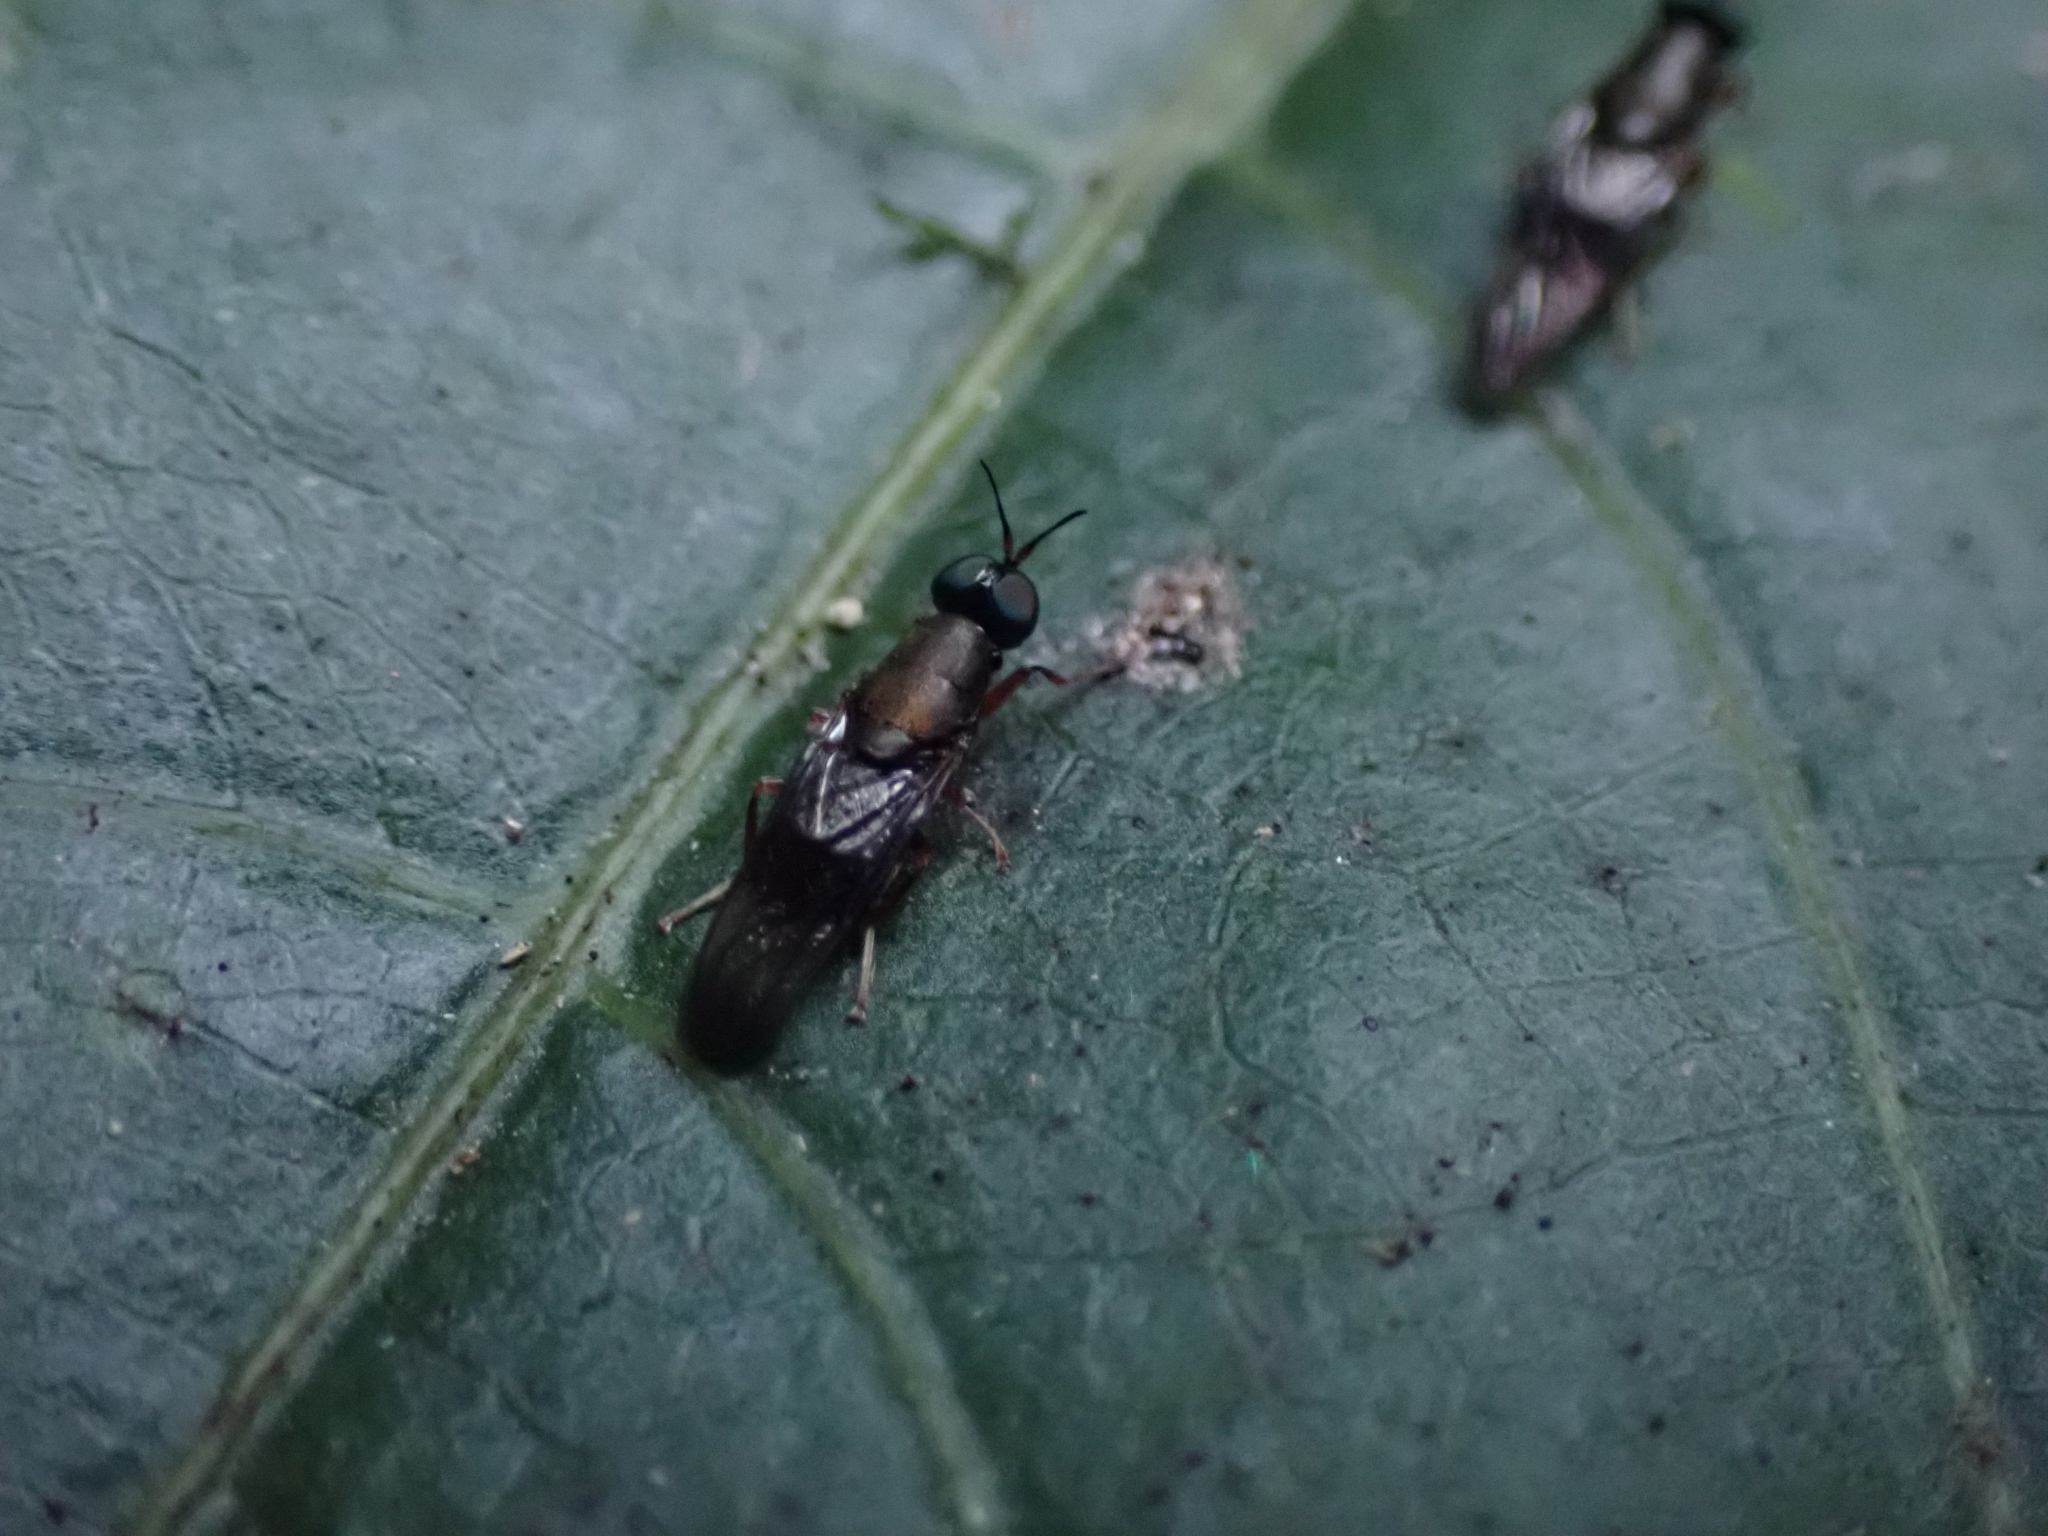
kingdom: Animalia
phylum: Arthropoda
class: Insecta
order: Diptera
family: Stratiomyidae
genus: Dysbiota
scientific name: Dysbiota peregrina
